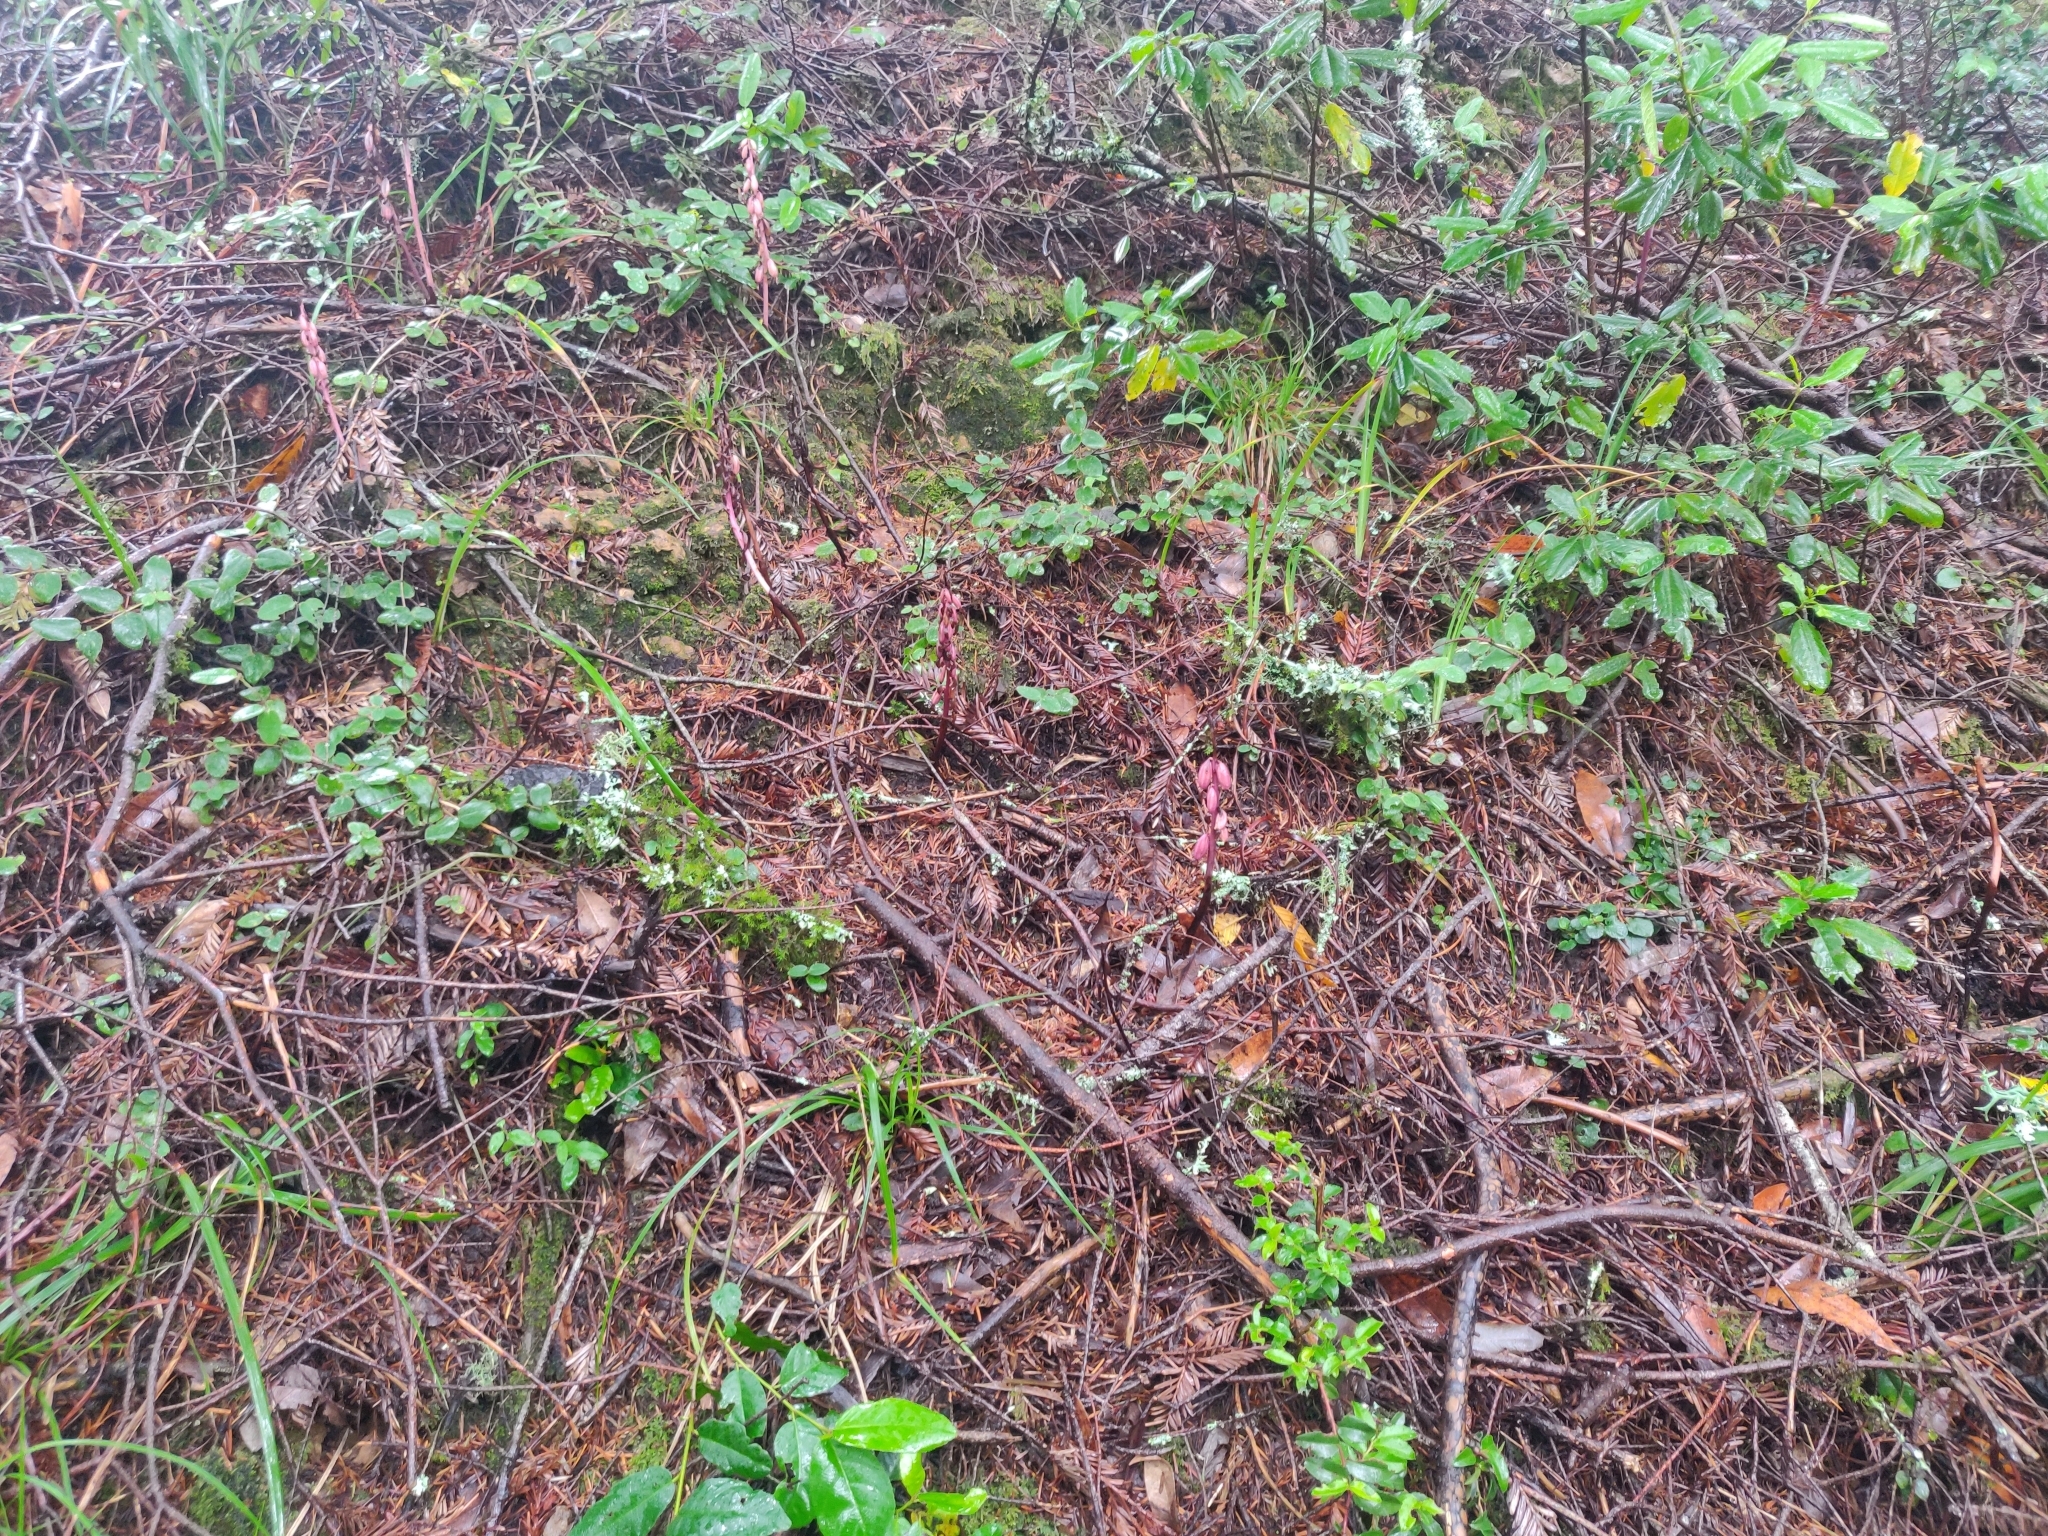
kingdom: Plantae
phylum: Tracheophyta
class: Liliopsida
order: Asparagales
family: Orchidaceae
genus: Corallorhiza
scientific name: Corallorhiza maculata
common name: Spotted coralroot
